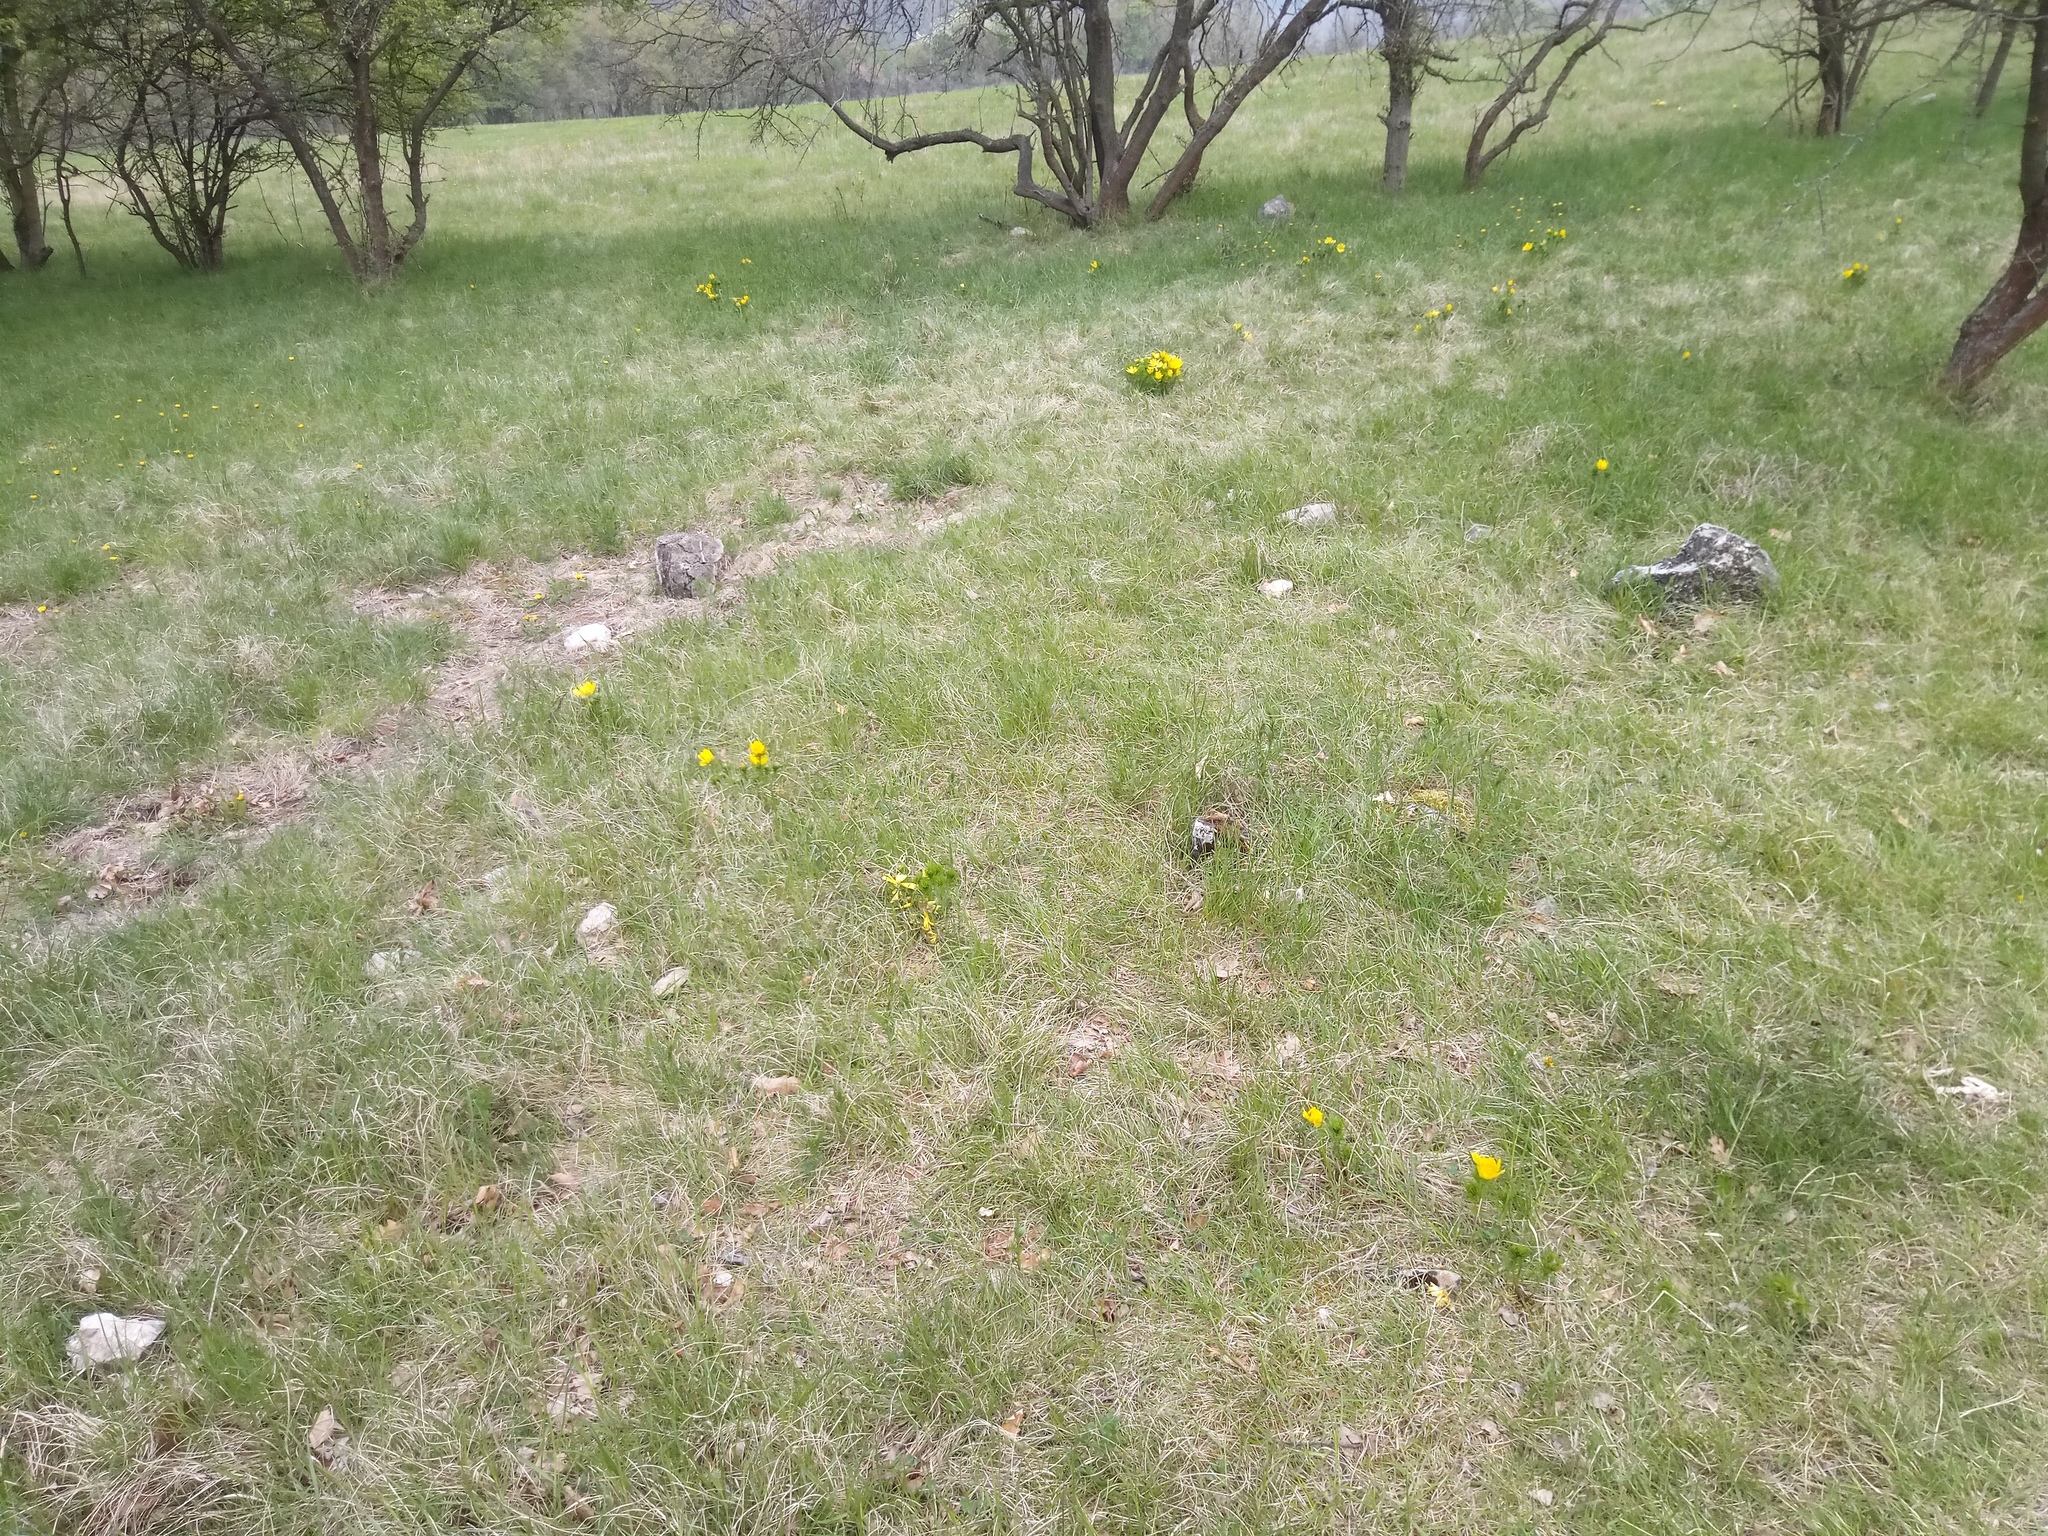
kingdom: Plantae
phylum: Tracheophyta
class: Magnoliopsida
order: Ranunculales
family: Ranunculaceae
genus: Adonis
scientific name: Adonis vernalis
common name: Yellow pheasants-eye
